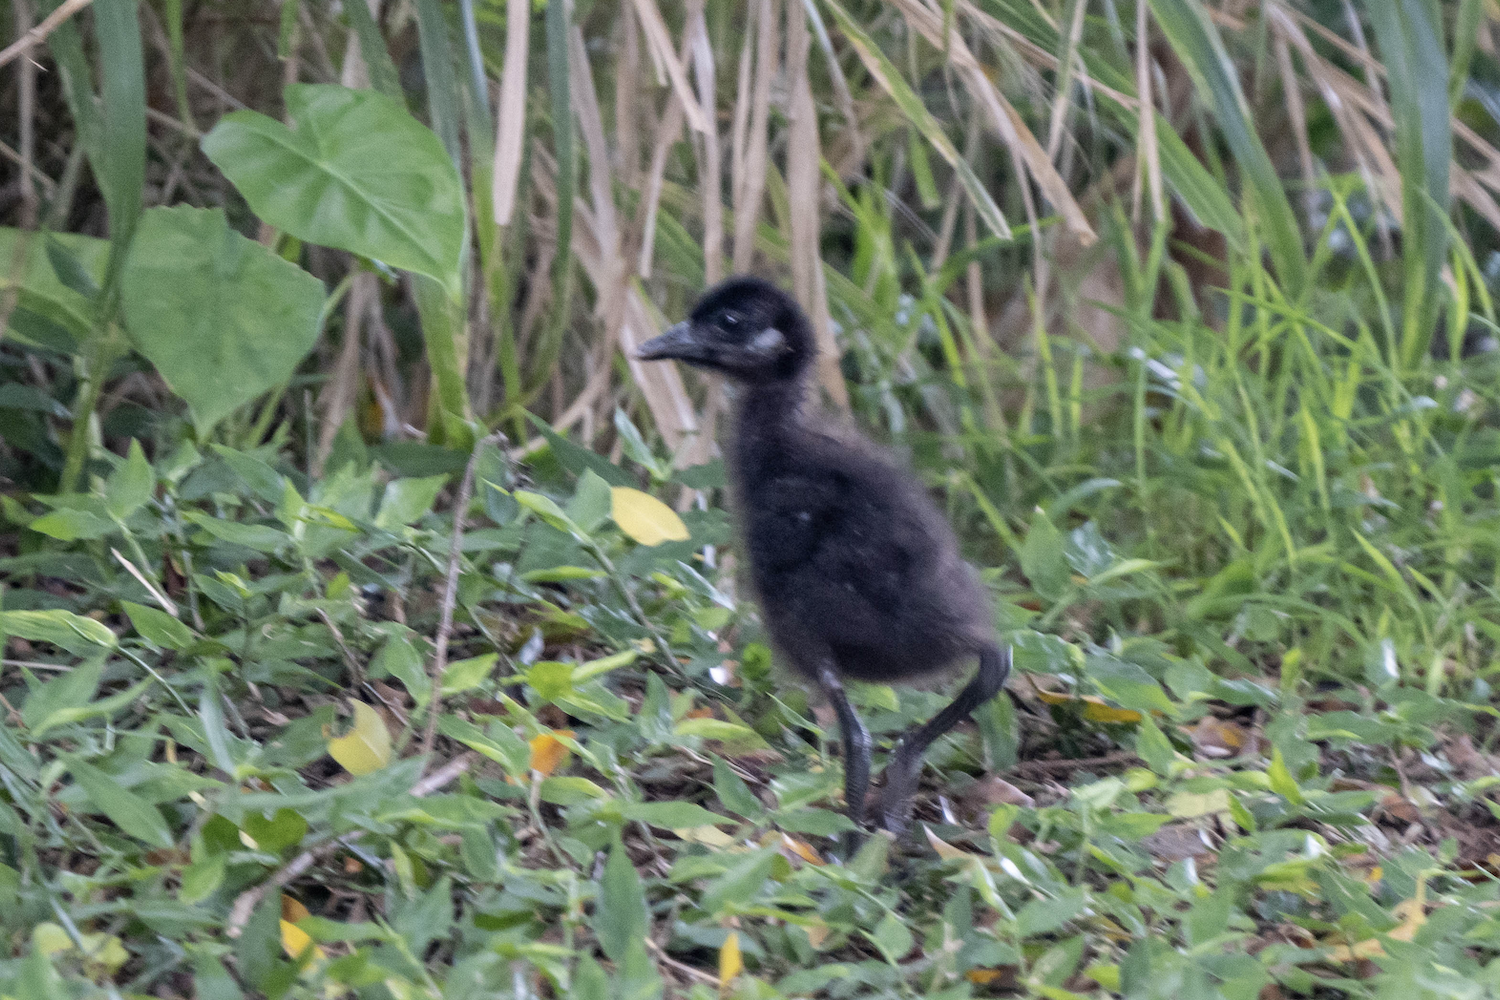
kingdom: Animalia
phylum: Chordata
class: Aves
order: Gruiformes
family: Rallidae
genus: Amaurornis
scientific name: Amaurornis phoenicurus
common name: White-breasted waterhen
